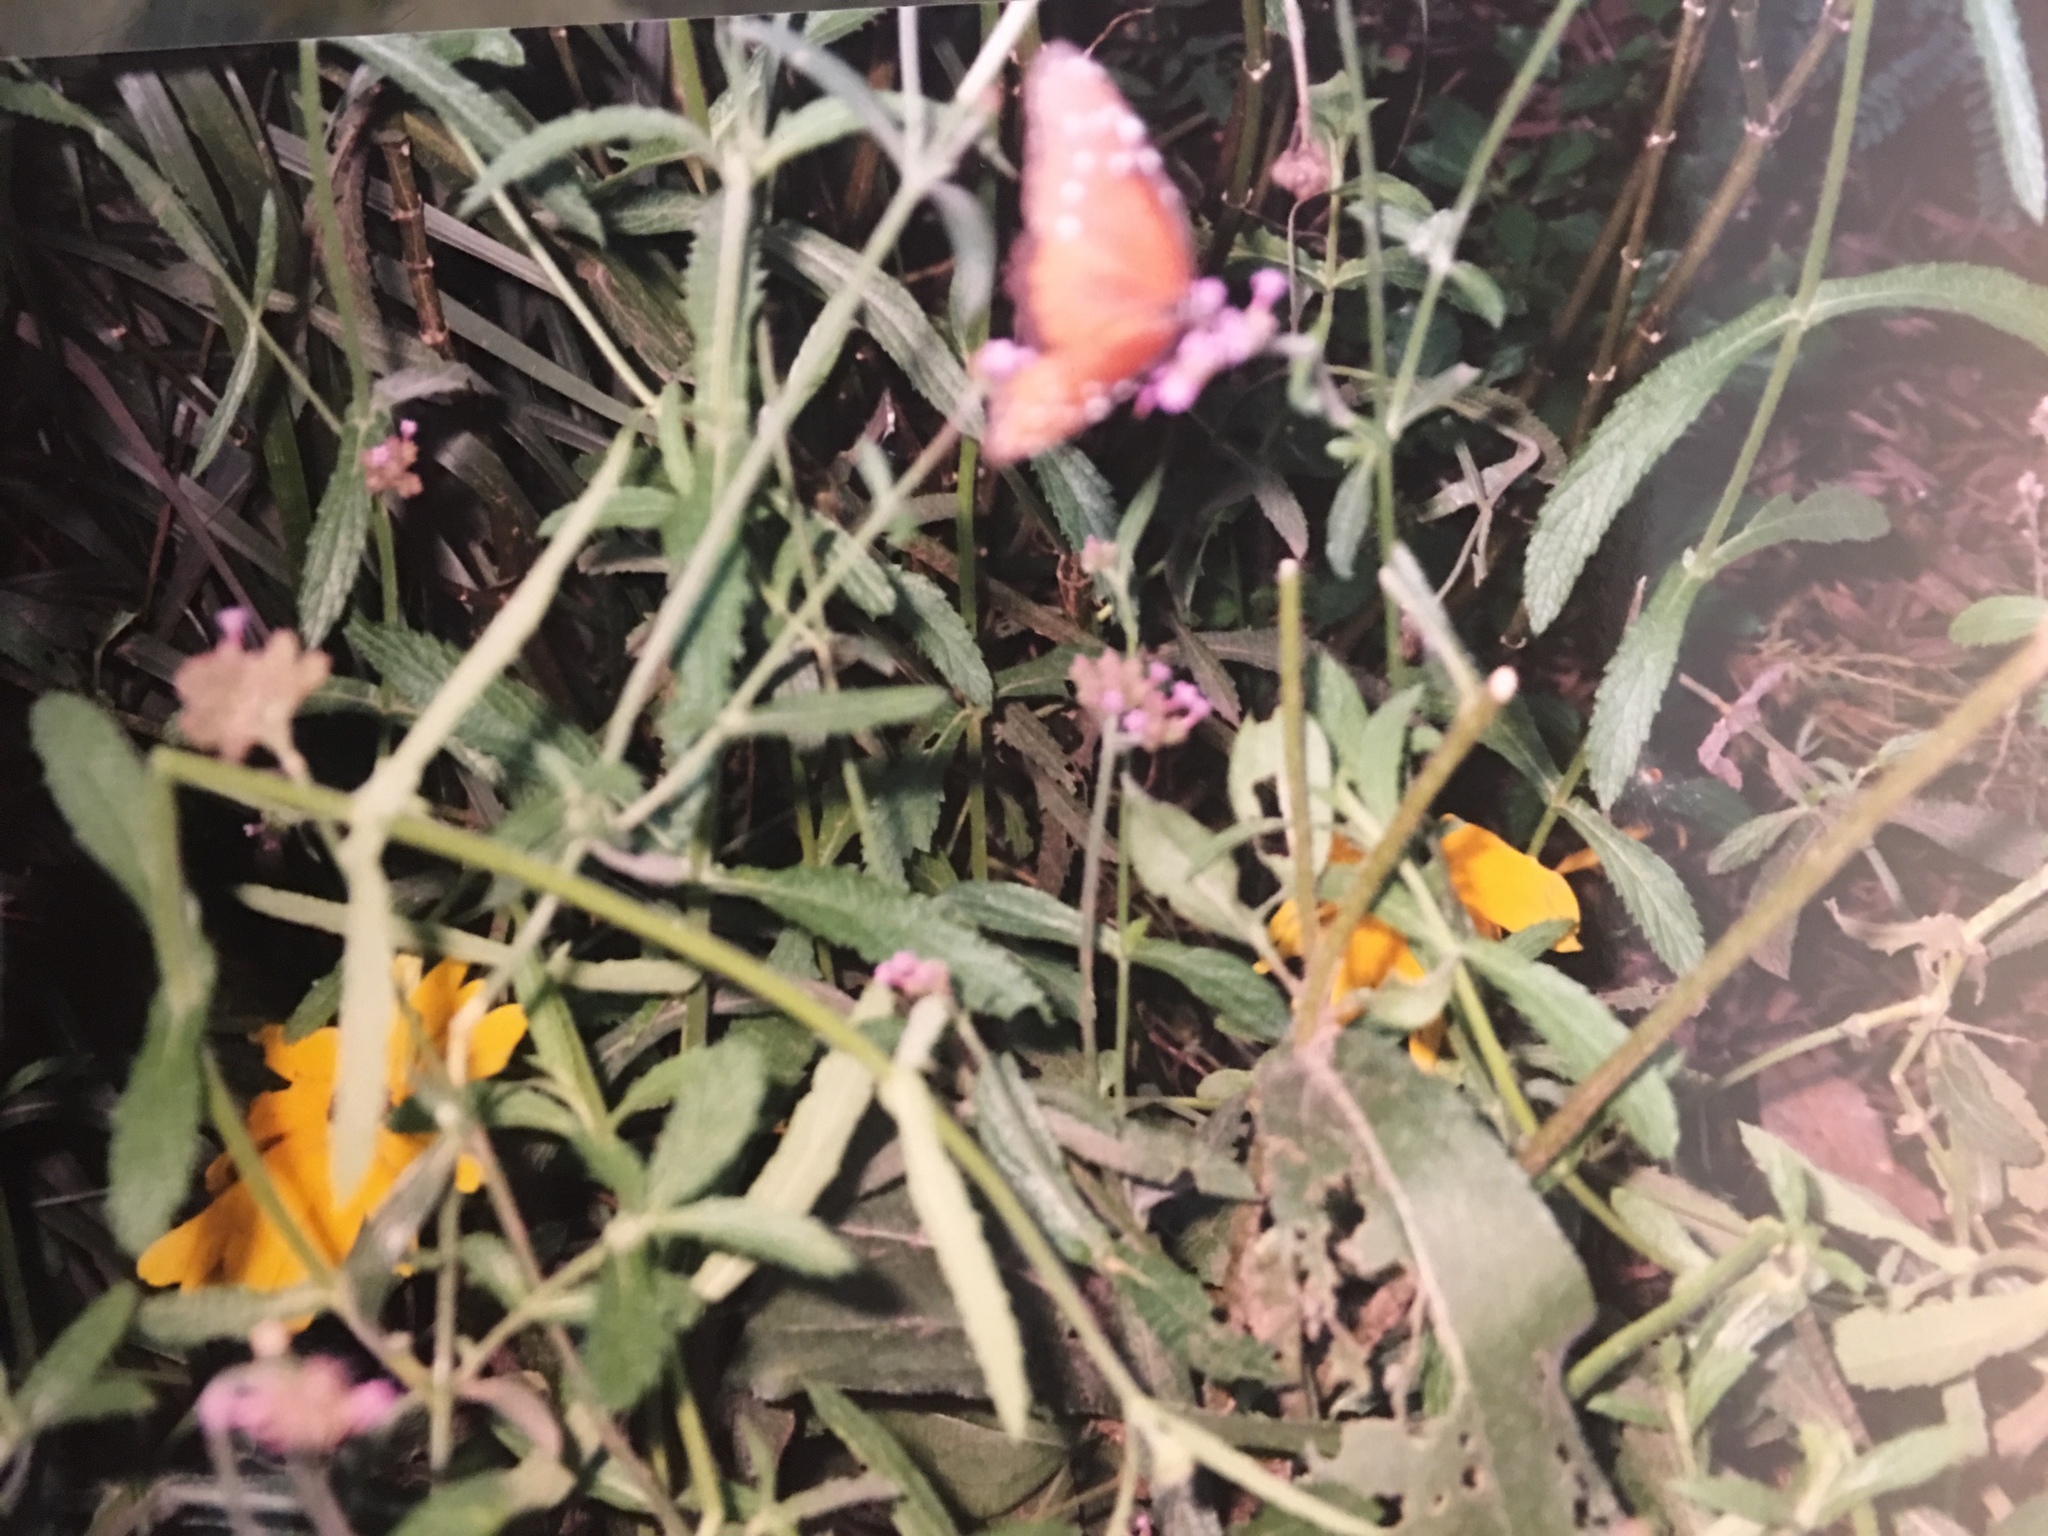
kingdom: Animalia
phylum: Arthropoda
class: Insecta
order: Lepidoptera
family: Nymphalidae
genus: Danaus
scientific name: Danaus gilippus
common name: Queen
